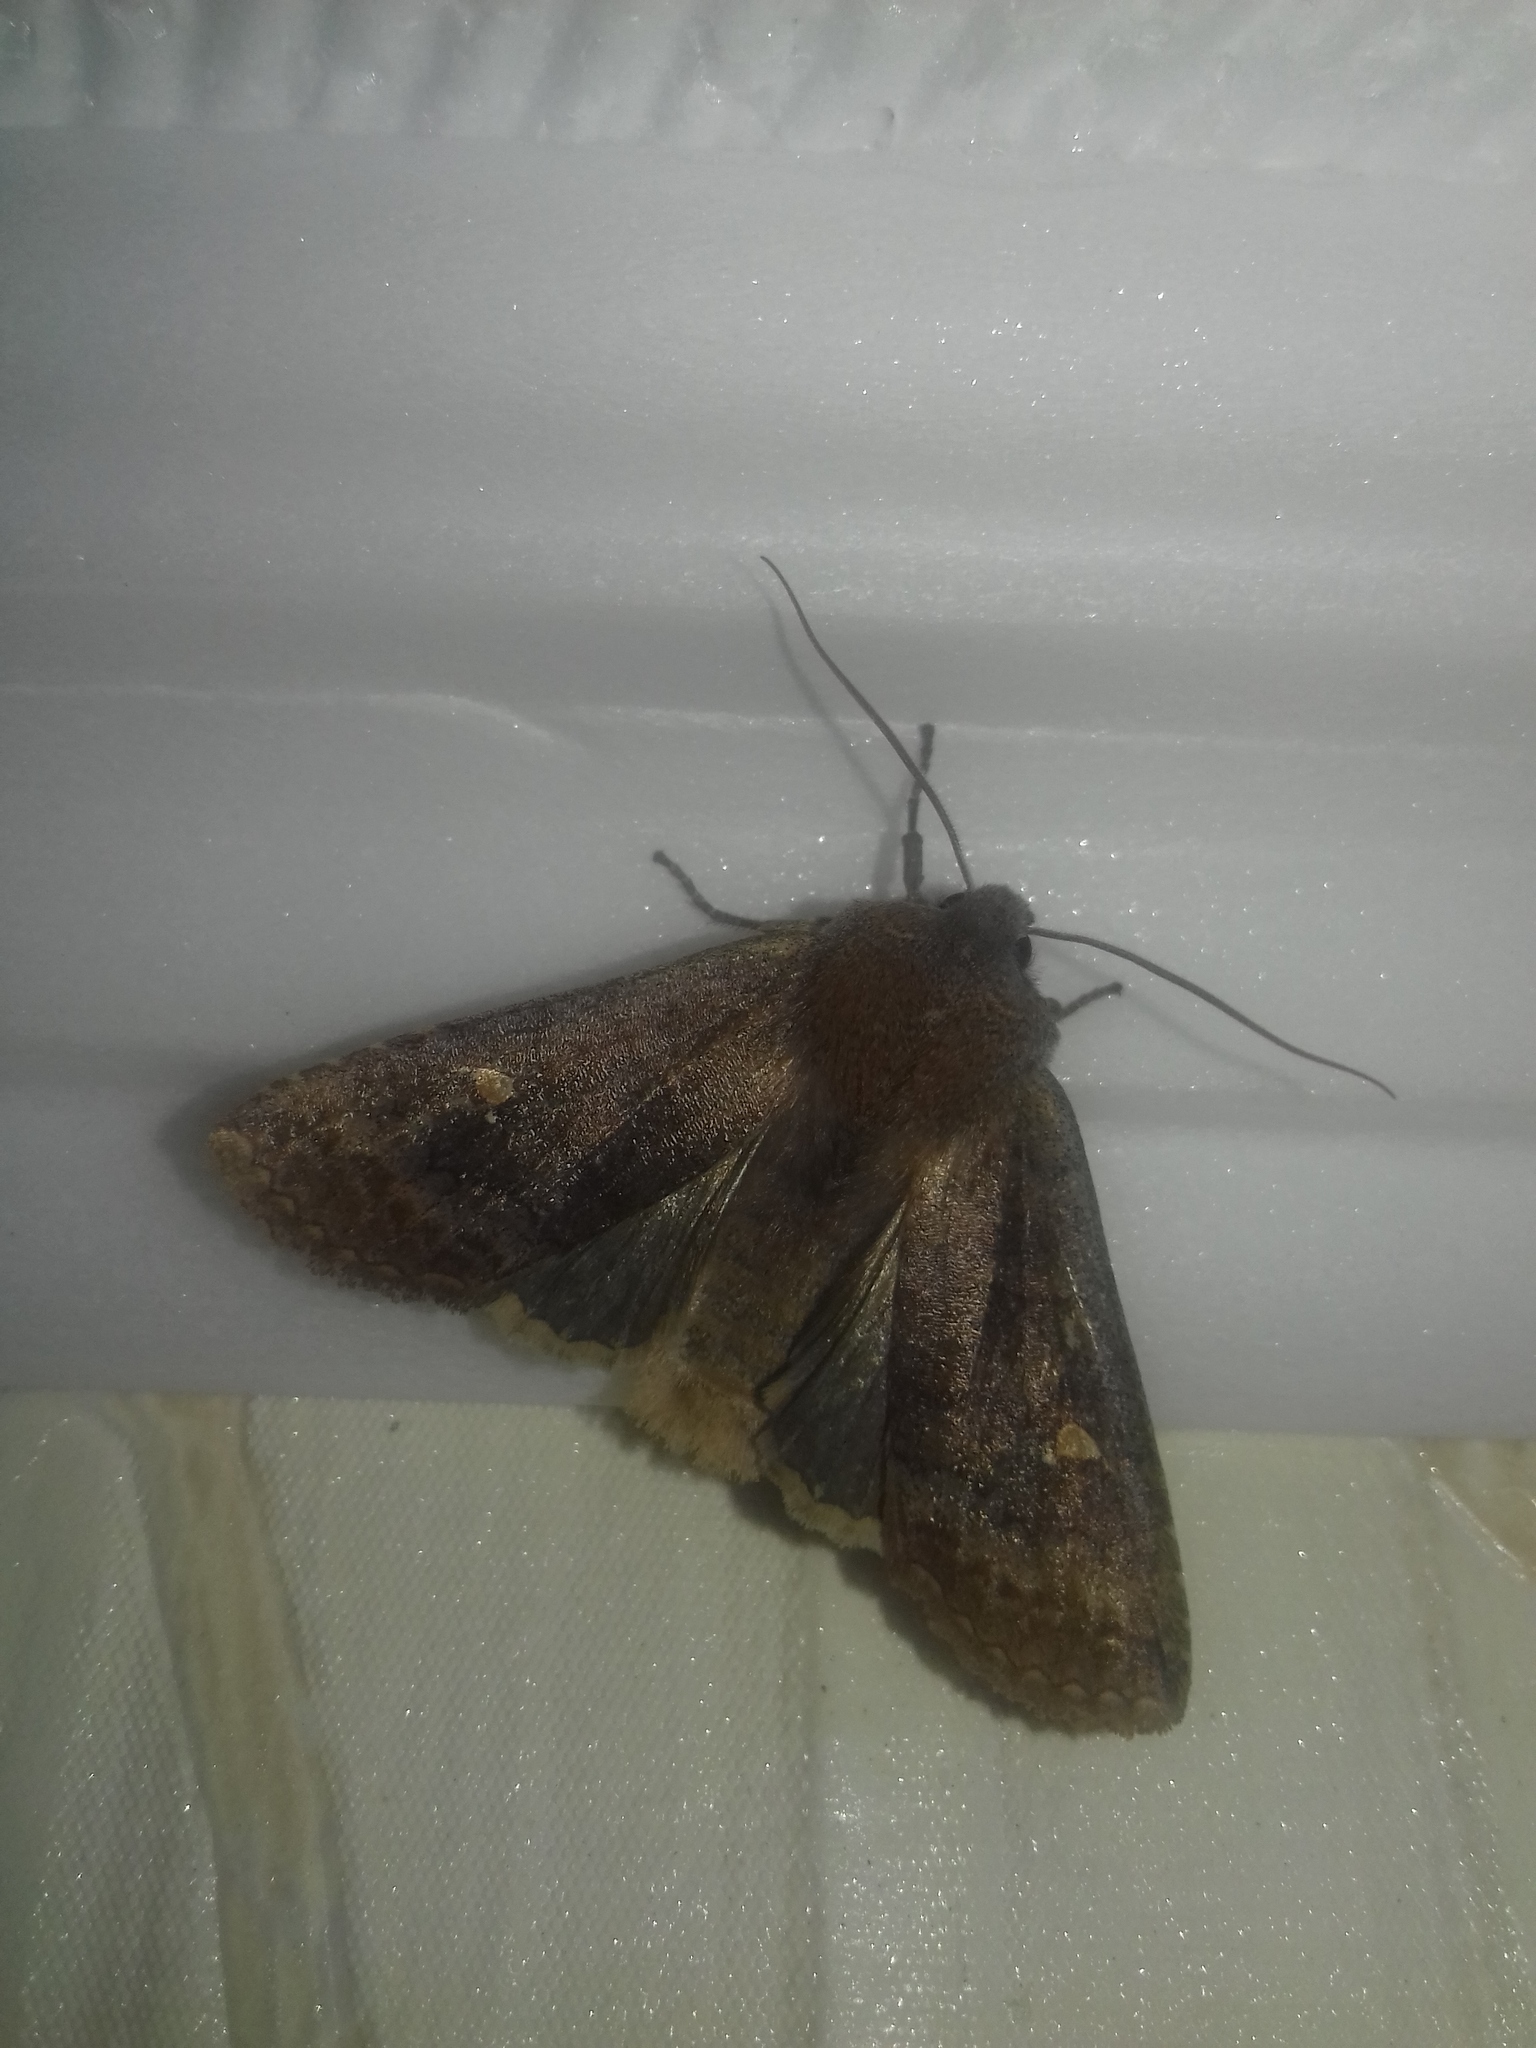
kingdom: Animalia
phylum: Arthropoda
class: Insecta
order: Lepidoptera
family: Noctuidae
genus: Eupsilia
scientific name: Eupsilia transversa
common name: Satellite
